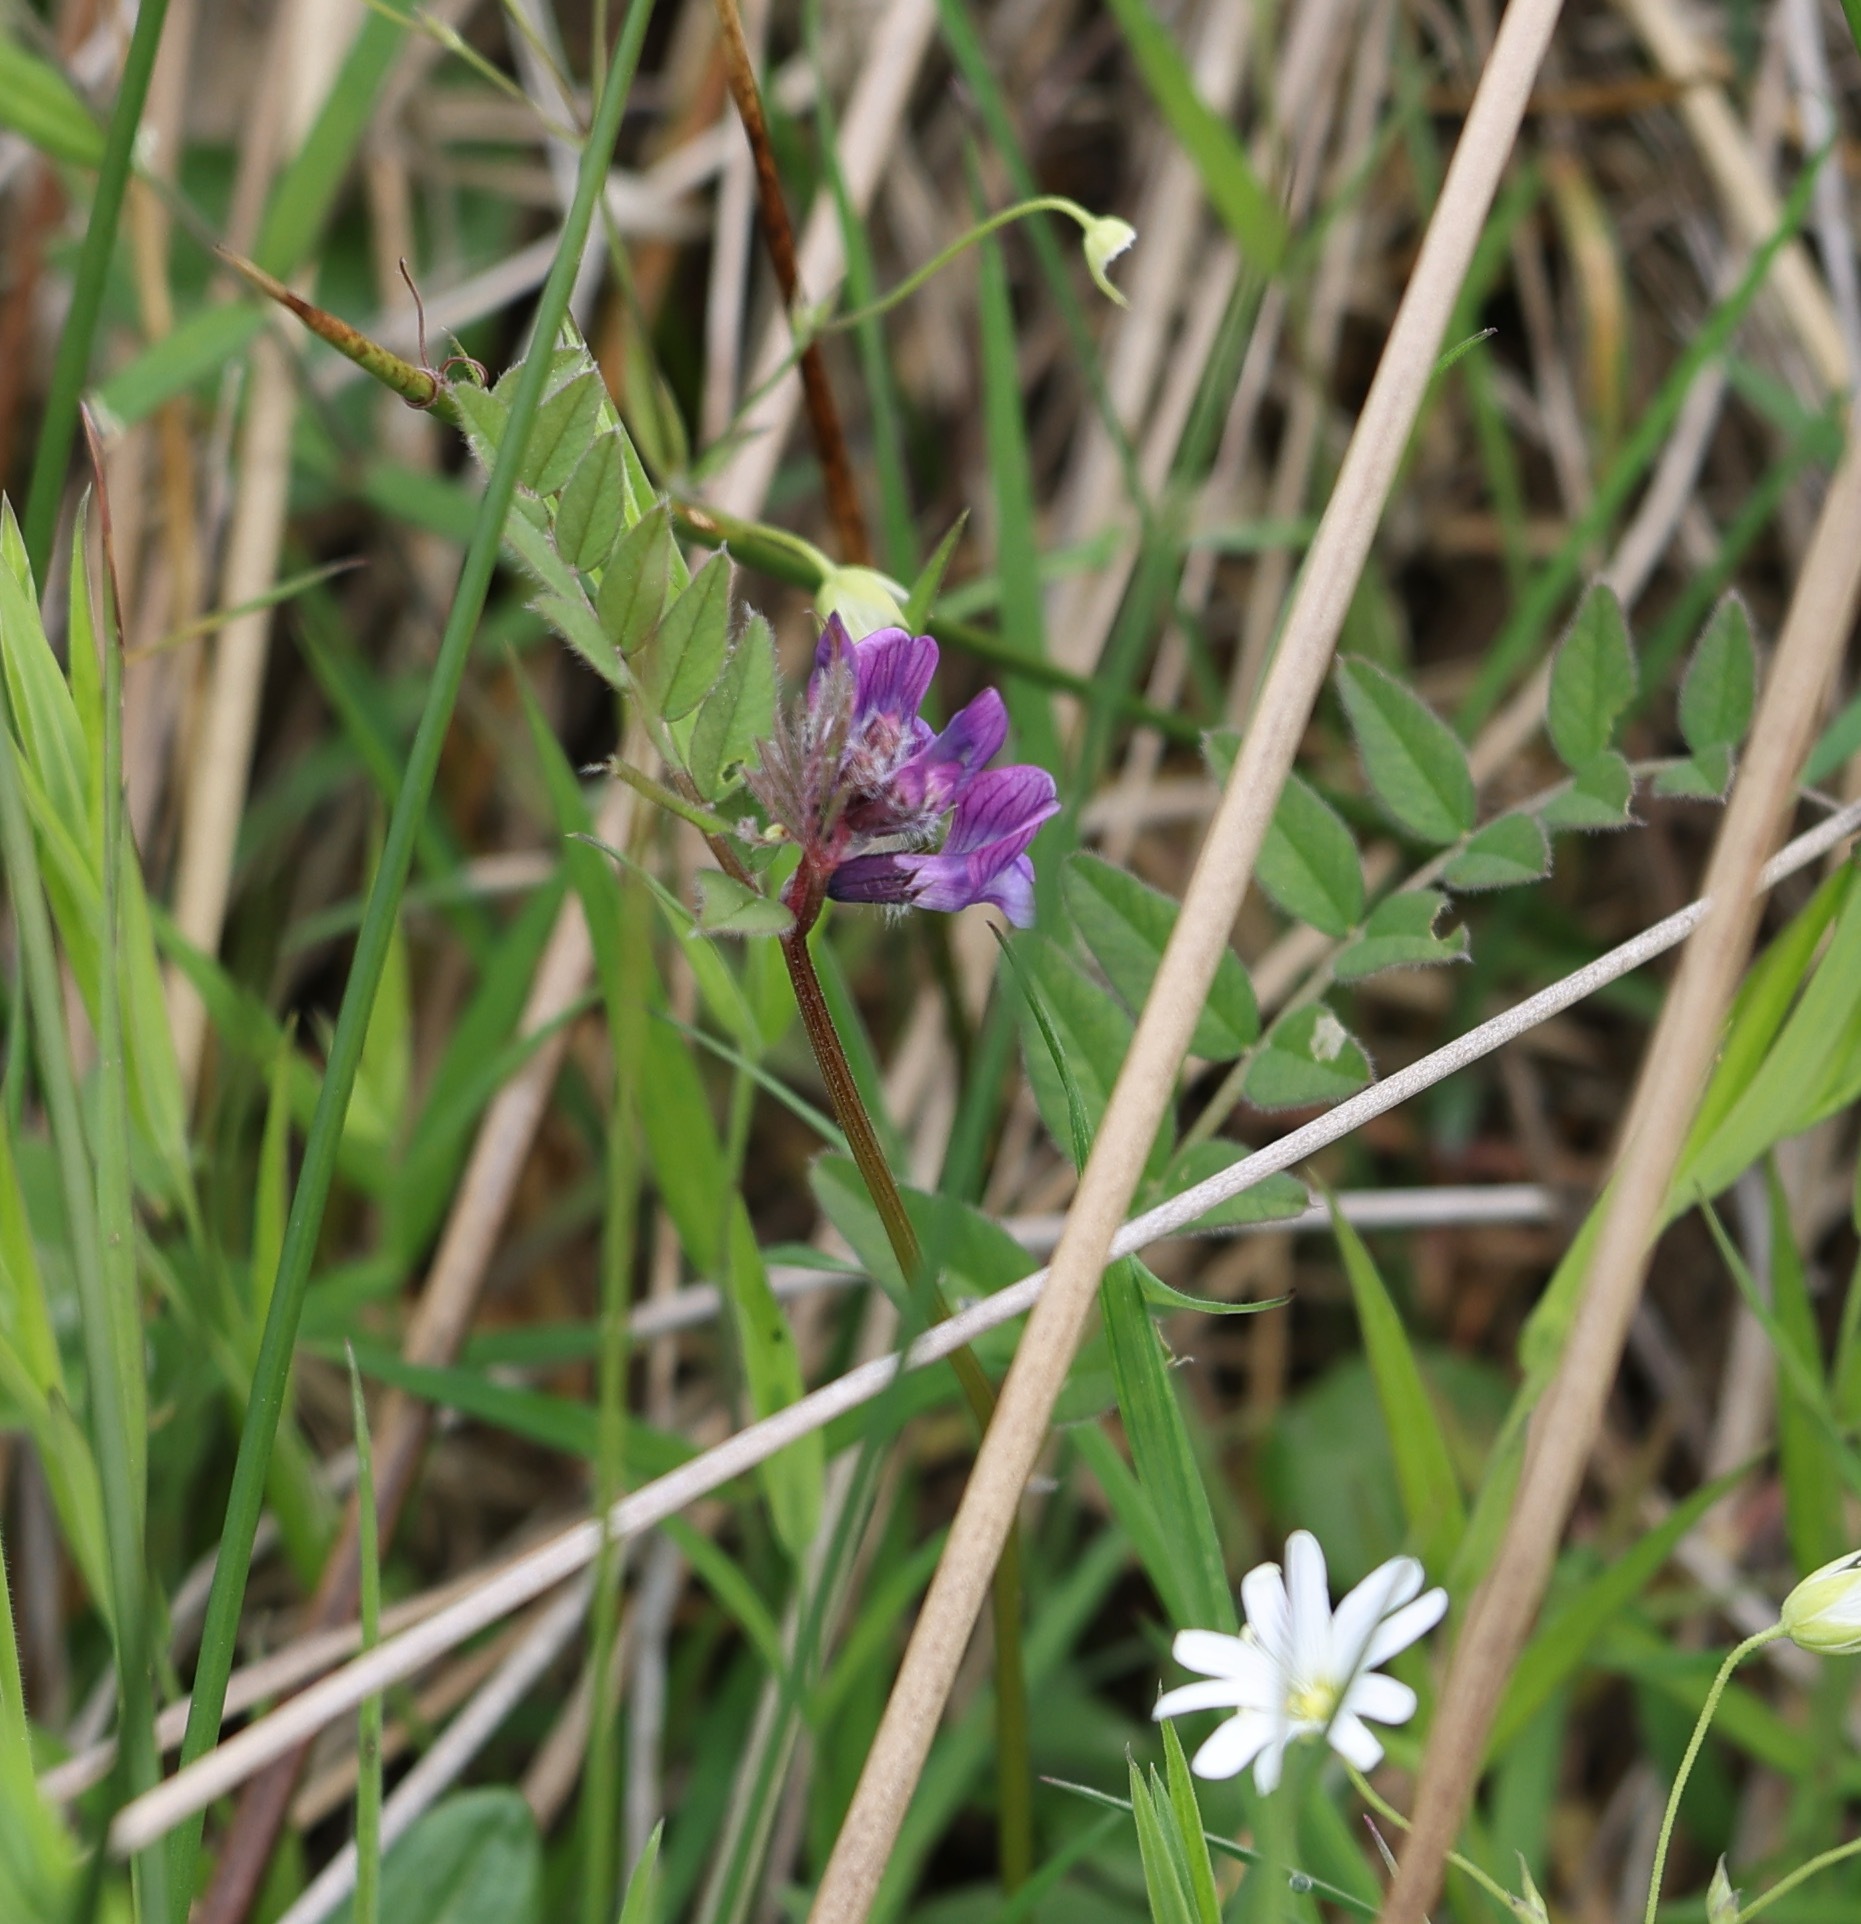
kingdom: Plantae
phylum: Tracheophyta
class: Magnoliopsida
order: Fabales
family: Fabaceae
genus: Vicia
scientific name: Vicia sepium
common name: Bush vetch
